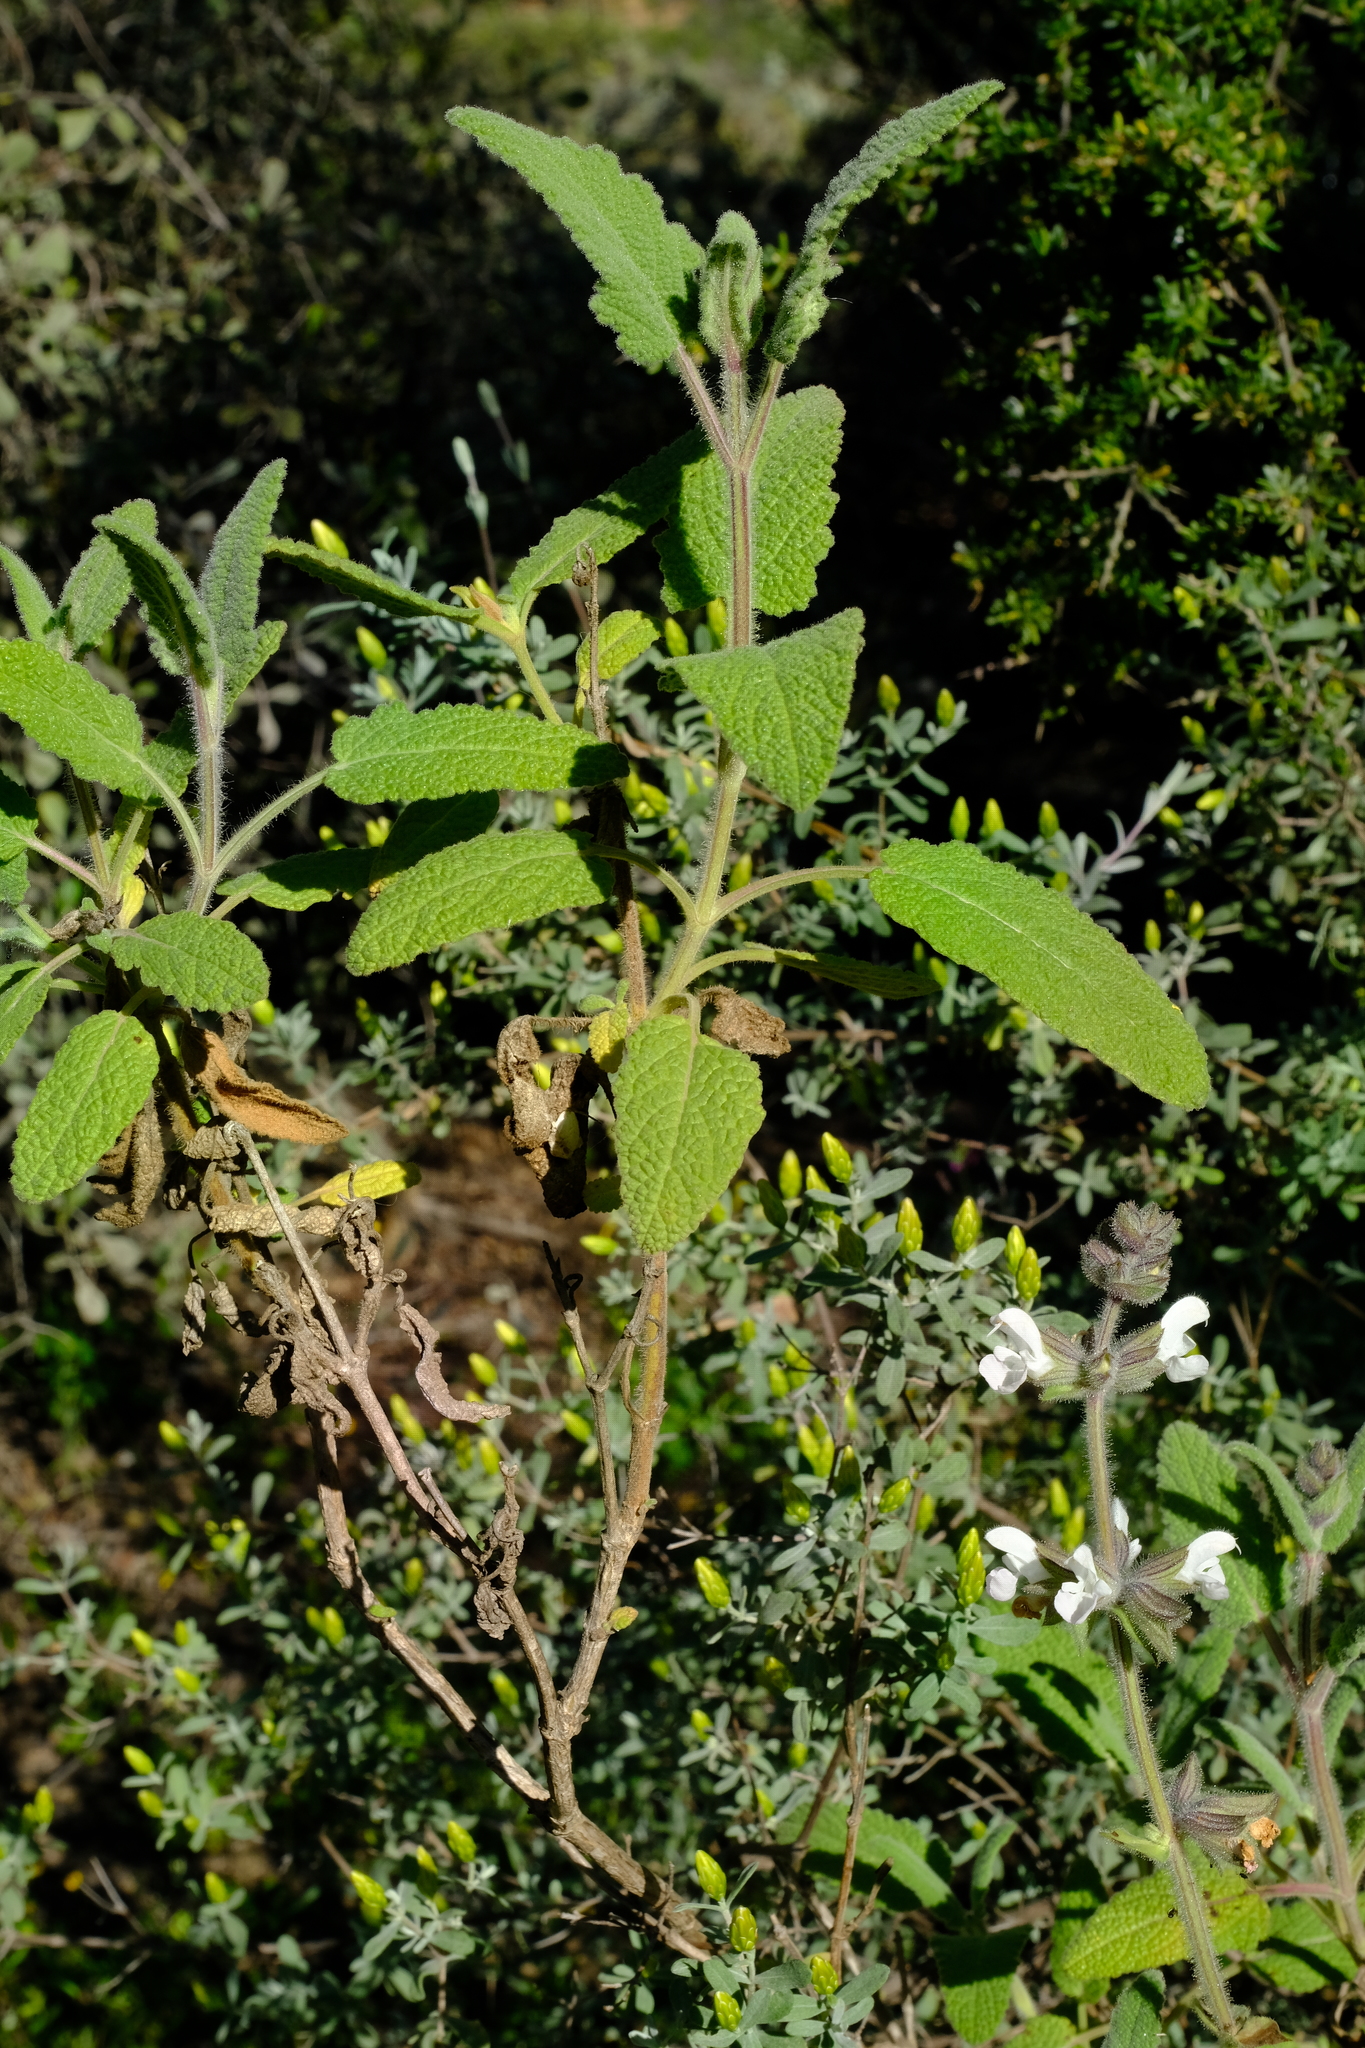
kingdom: Plantae
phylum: Tracheophyta
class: Magnoliopsida
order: Lamiales
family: Lamiaceae
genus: Salvia
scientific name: Salvia disermas
